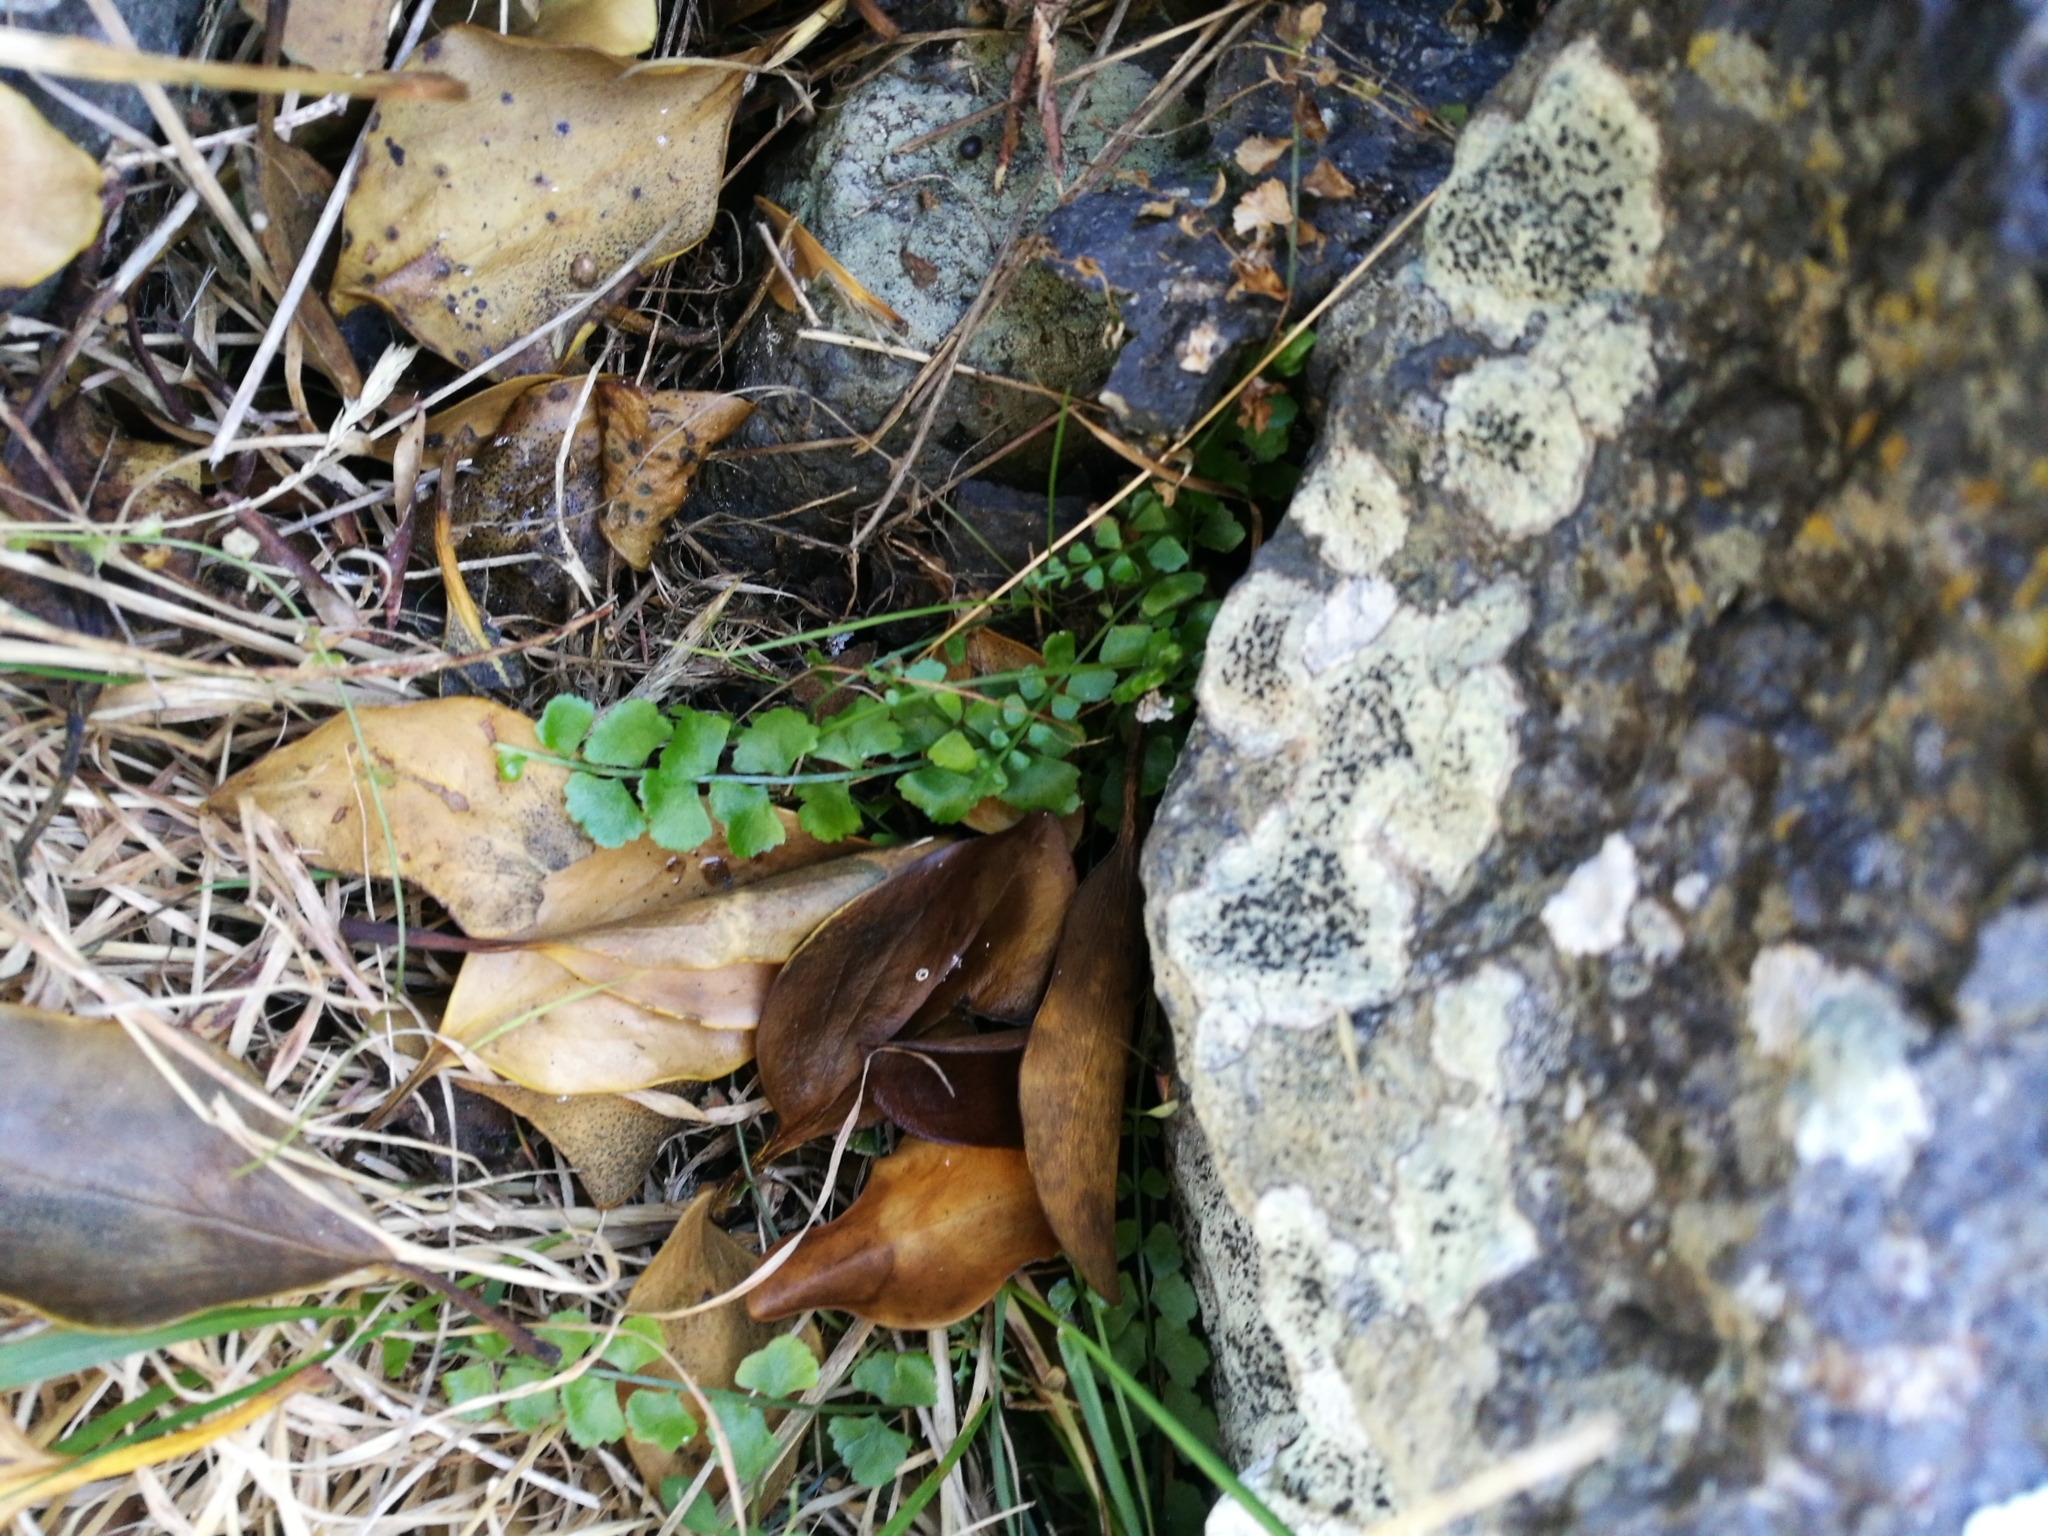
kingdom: Plantae
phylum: Tracheophyta
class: Polypodiopsida
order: Polypodiales
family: Aspleniaceae
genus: Asplenium
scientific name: Asplenium flabellifolium
